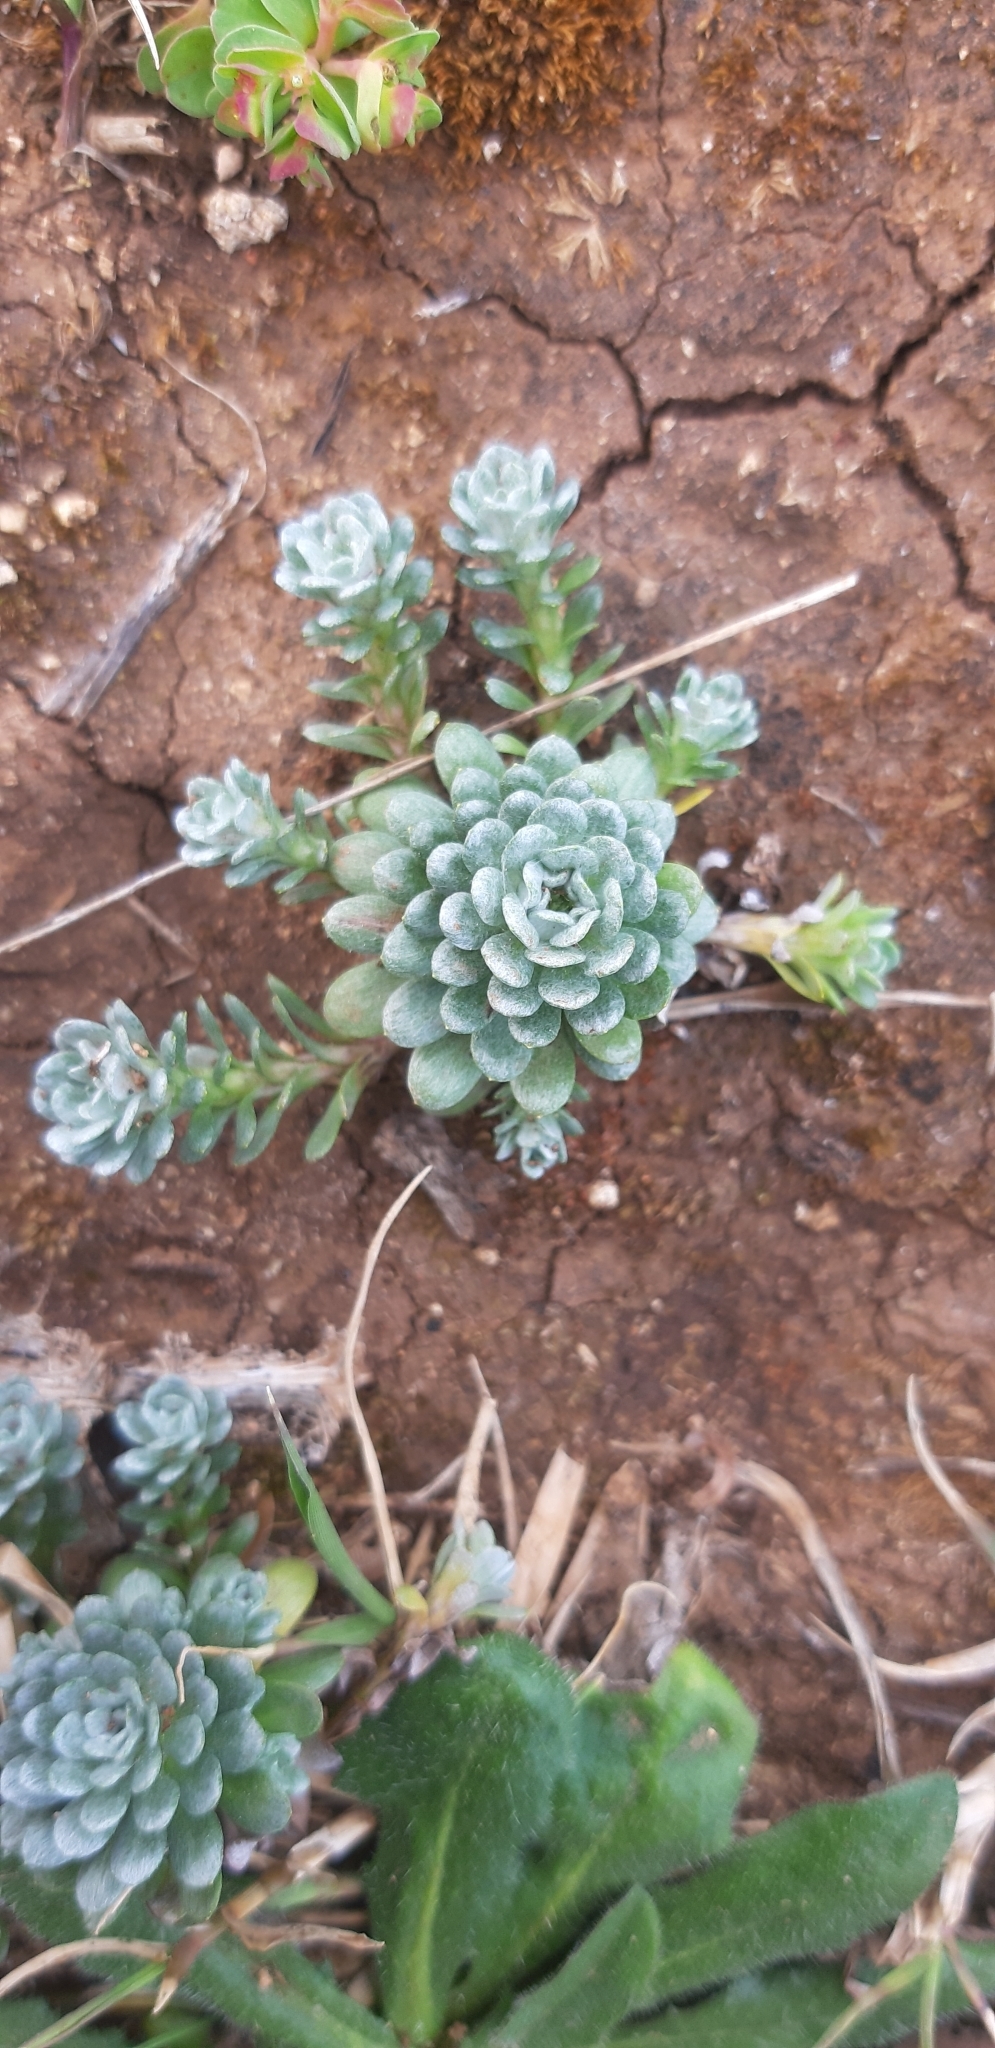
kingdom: Plantae
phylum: Tracheophyta
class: Magnoliopsida
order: Asterales
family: Asteraceae
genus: Filago
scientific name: Filago pygmaea
